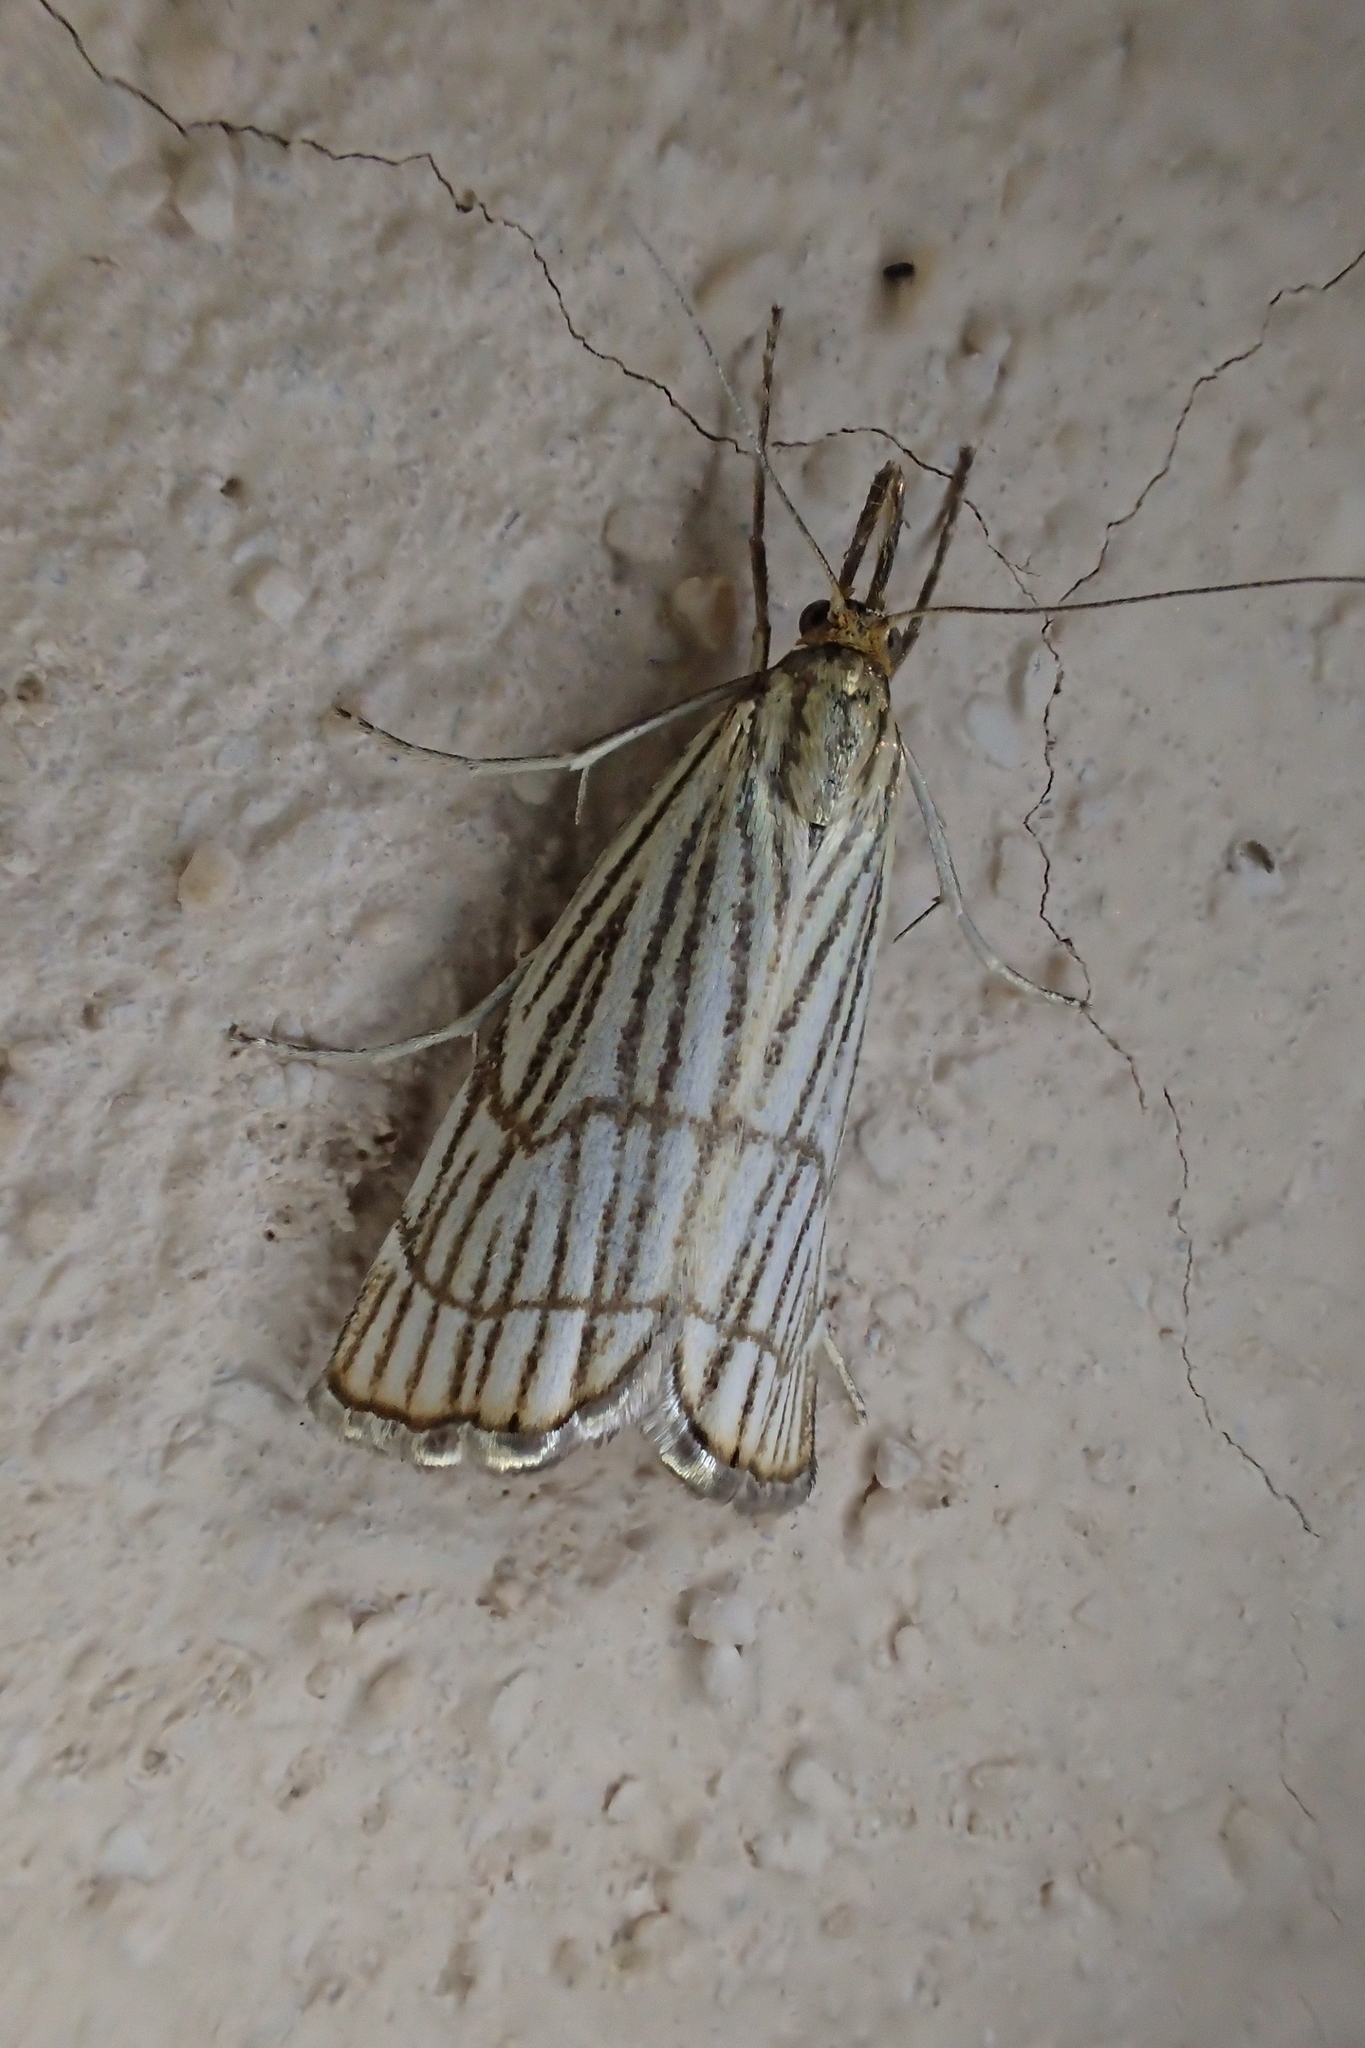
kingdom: Animalia
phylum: Arthropoda
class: Insecta
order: Lepidoptera
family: Crambidae
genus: Chrysocrambus
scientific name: Chrysocrambus Chrysocramboides craterellus
